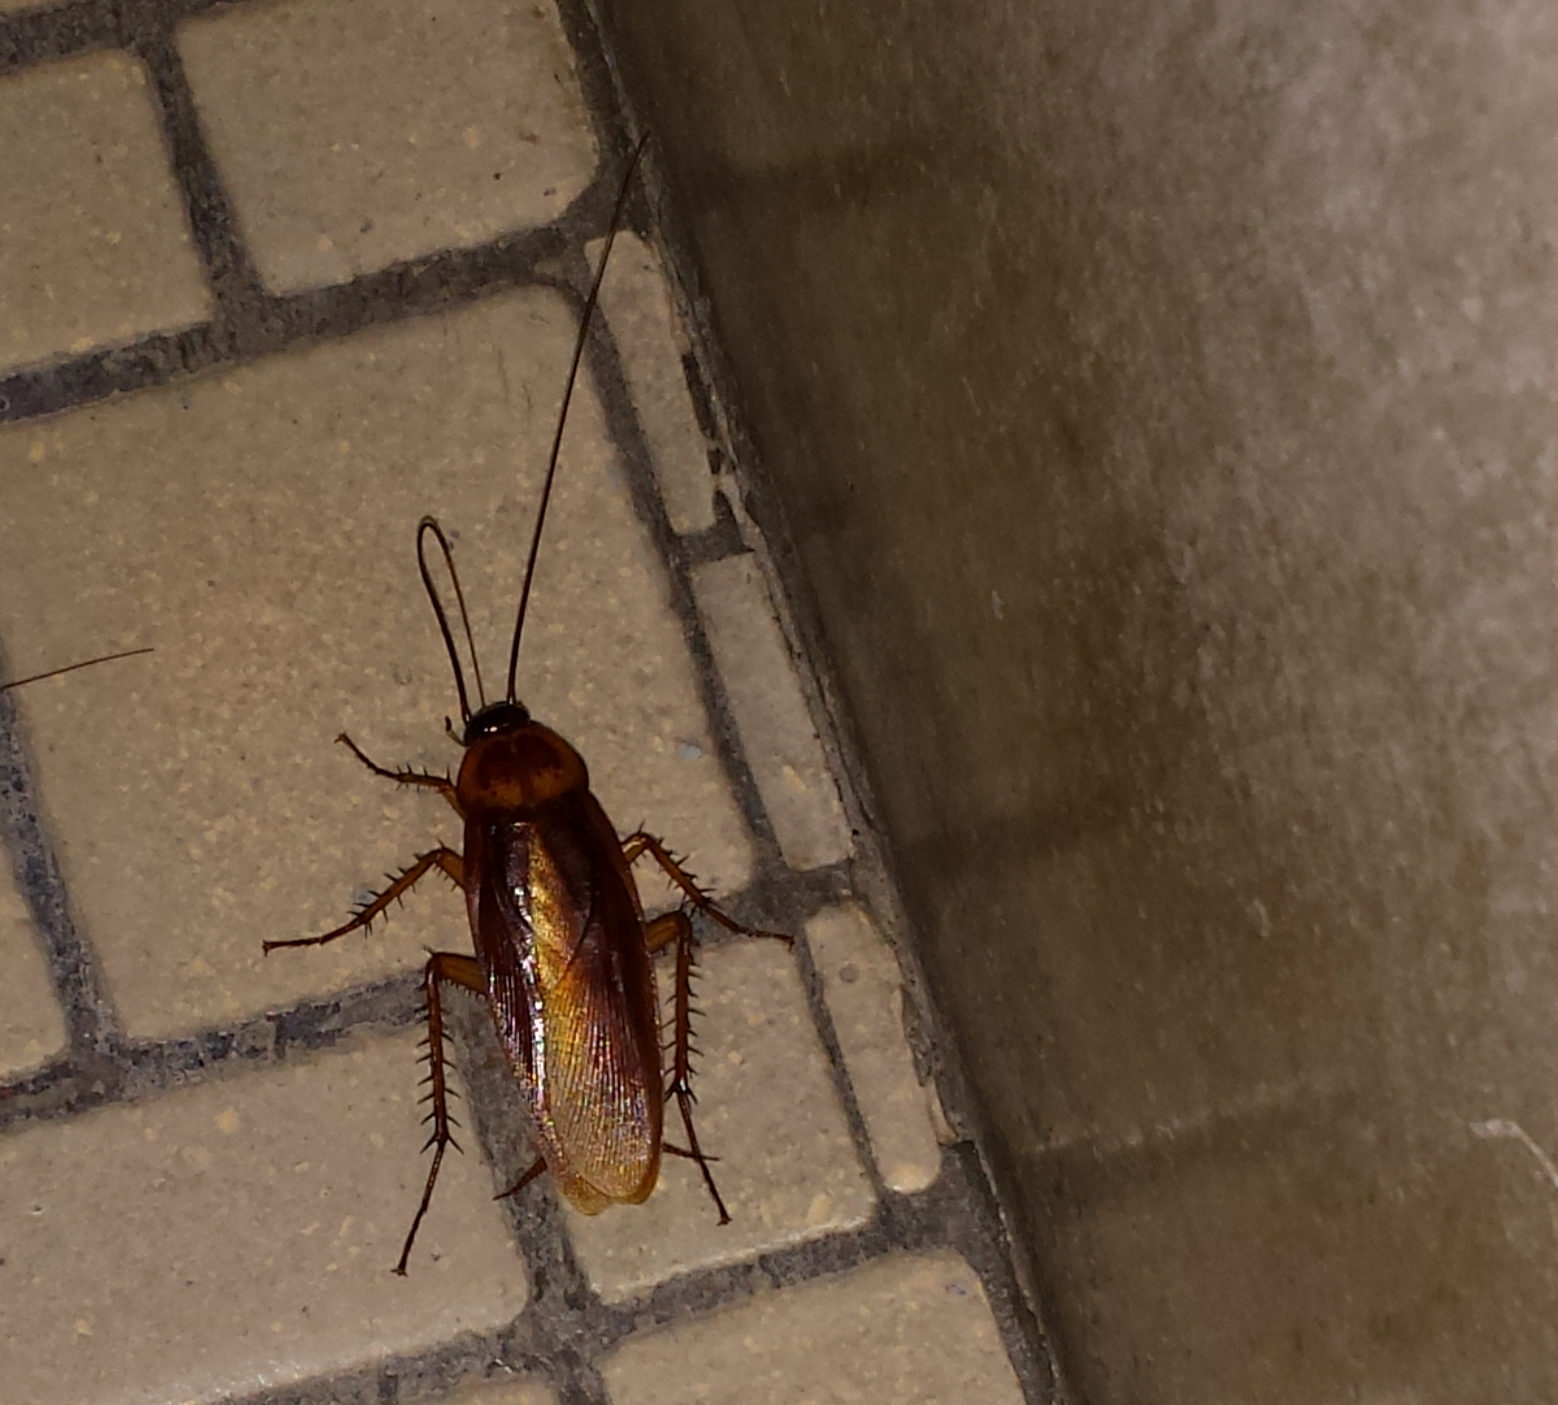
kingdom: Animalia
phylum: Arthropoda
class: Insecta
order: Blattodea
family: Blattidae
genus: Periplaneta
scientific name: Periplaneta americana
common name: American cockroach
